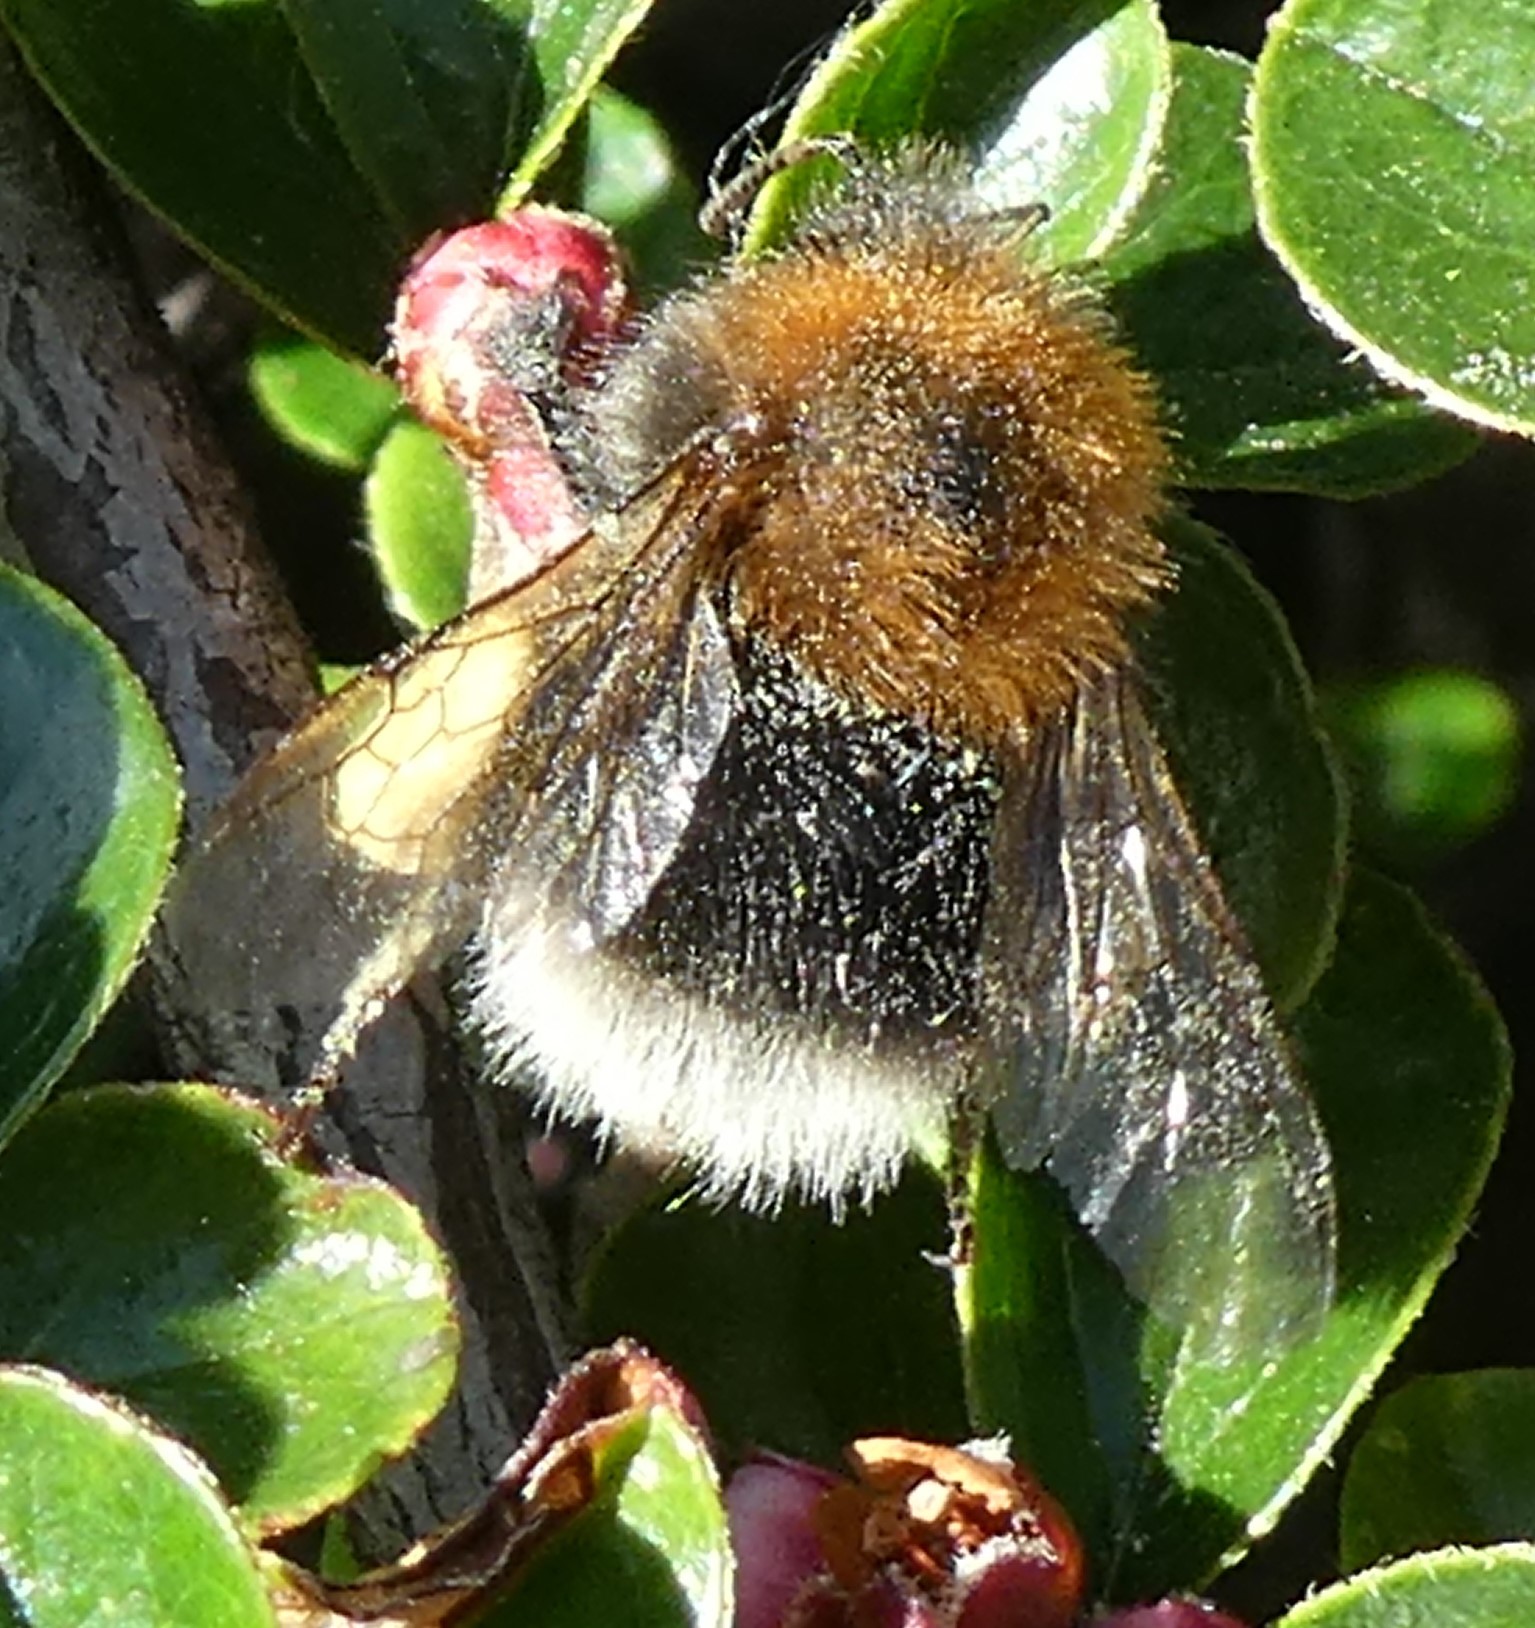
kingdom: Animalia
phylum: Arthropoda
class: Insecta
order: Hymenoptera
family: Apidae
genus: Bombus
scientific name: Bombus hypnorum
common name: New garden bumblebee
